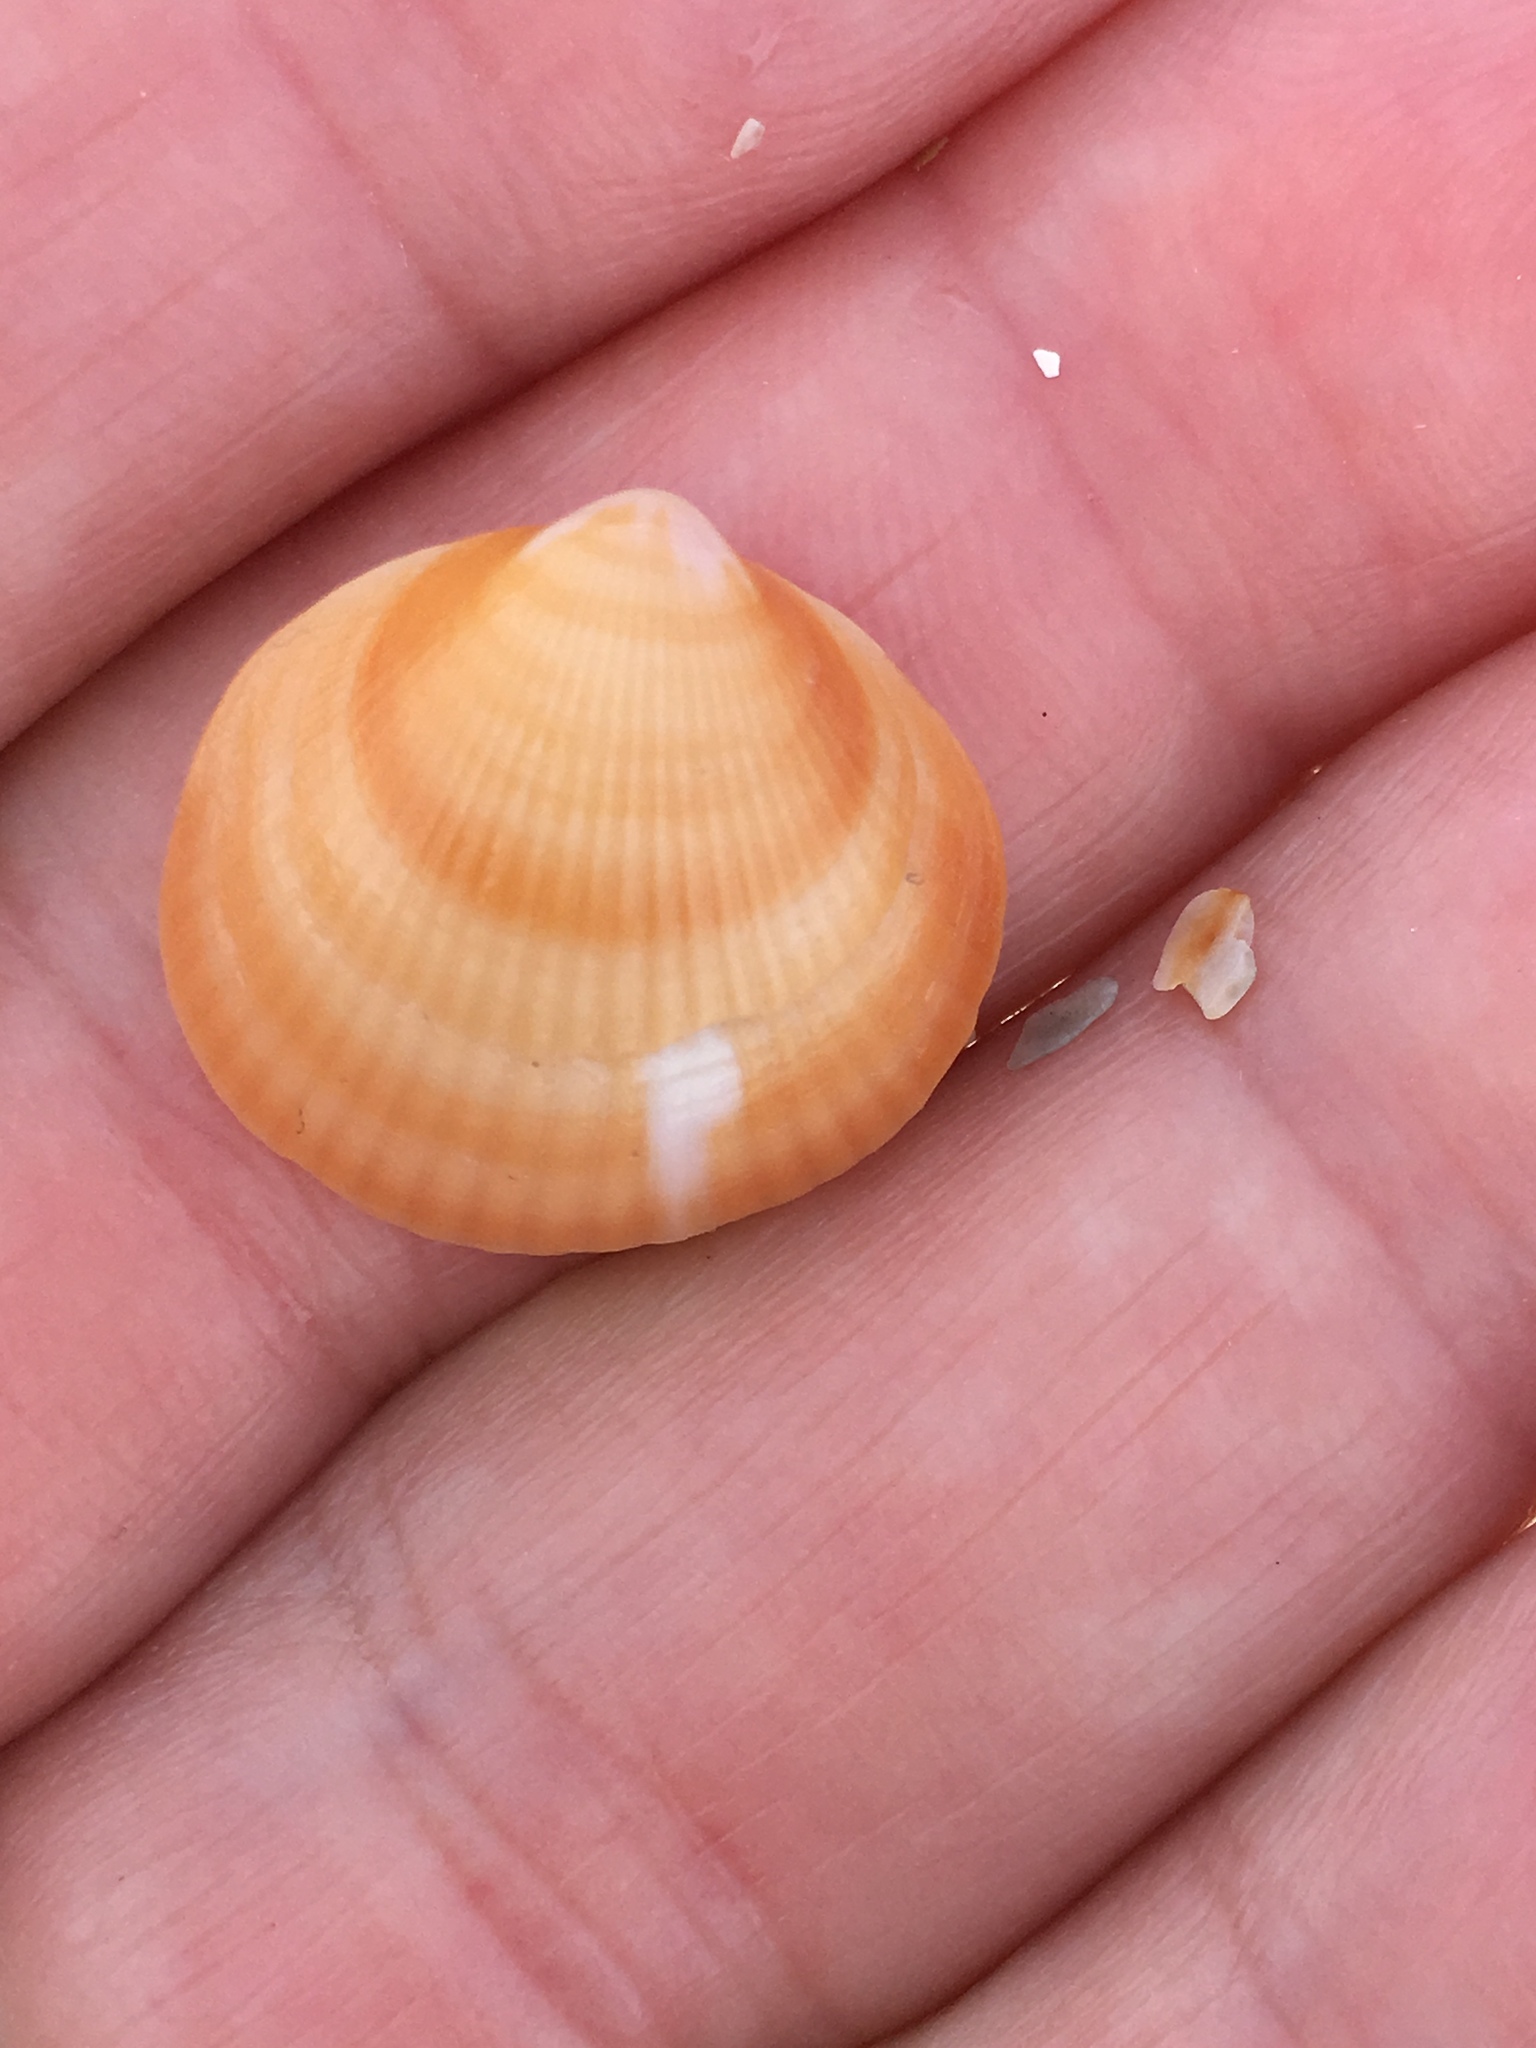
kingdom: Animalia
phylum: Mollusca
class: Bivalvia
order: Arcida
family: Glycymerididae
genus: Glycymeris
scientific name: Glycymeris spectralis
